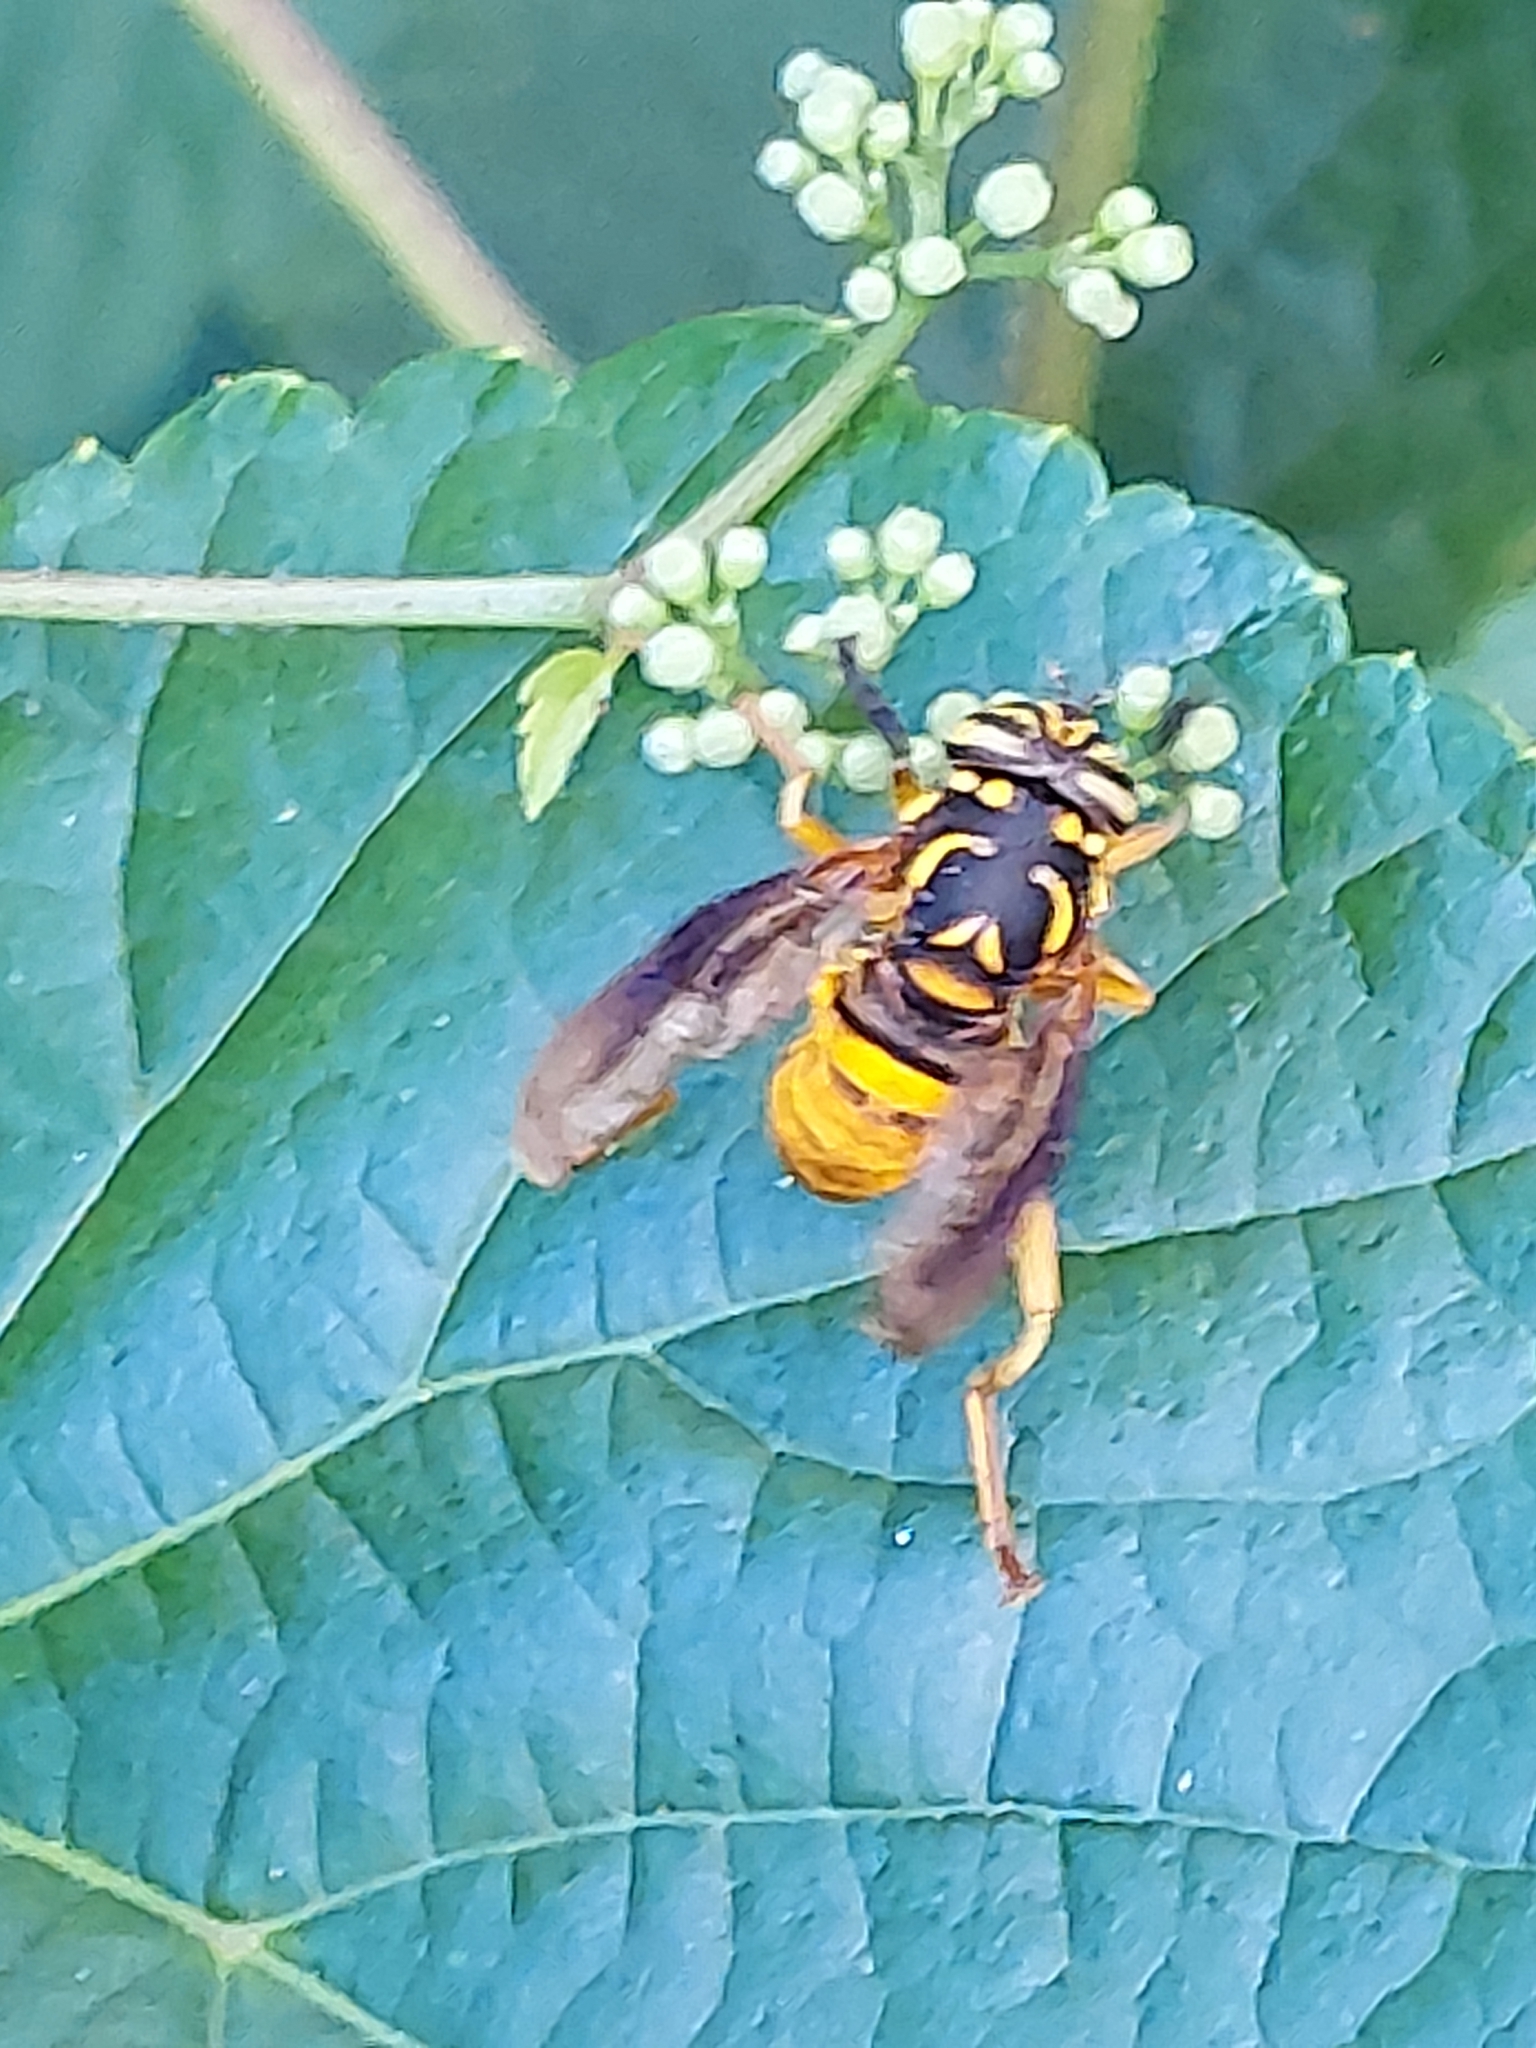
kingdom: Animalia
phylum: Arthropoda
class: Insecta
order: Diptera
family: Syrphidae
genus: Spilomyia
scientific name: Spilomyia alcimus
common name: Broad-banded hornet fly
